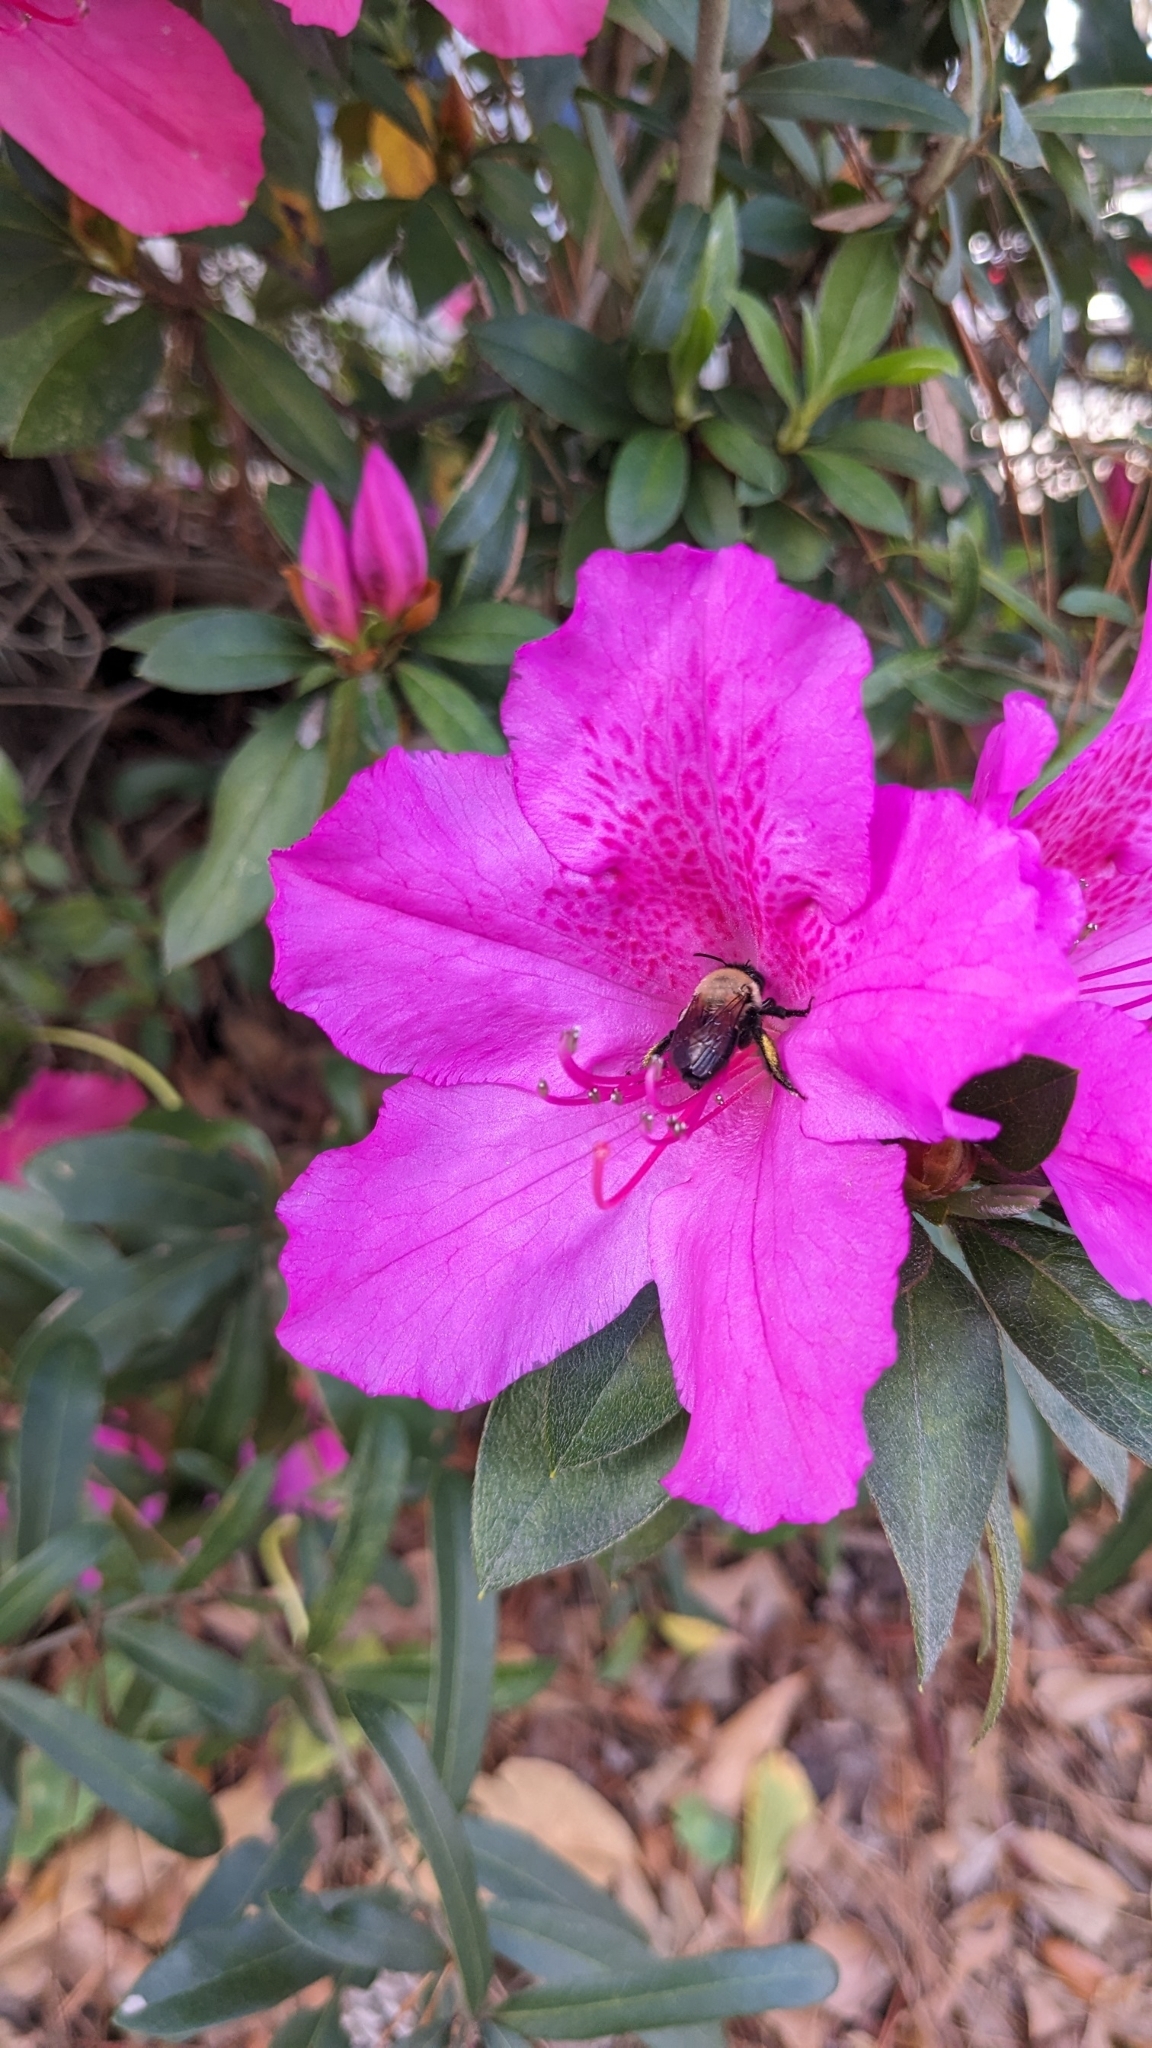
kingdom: Animalia
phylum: Arthropoda
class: Insecta
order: Hymenoptera
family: Apidae
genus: Habropoda
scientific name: Habropoda laboriosa
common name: Southeastern blueberry bee
